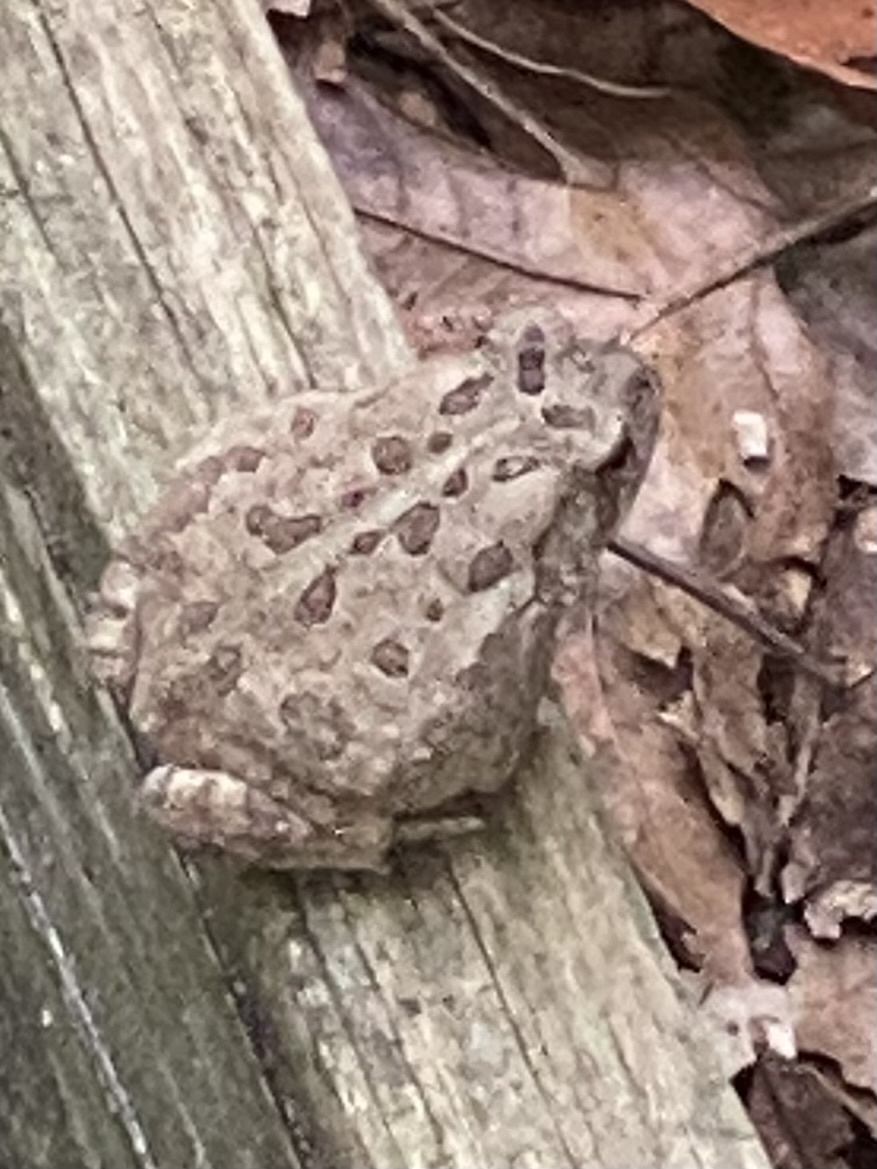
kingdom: Animalia
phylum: Chordata
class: Amphibia
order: Anura
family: Bufonidae
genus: Anaxyrus
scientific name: Anaxyrus fowleri
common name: Fowler's toad
